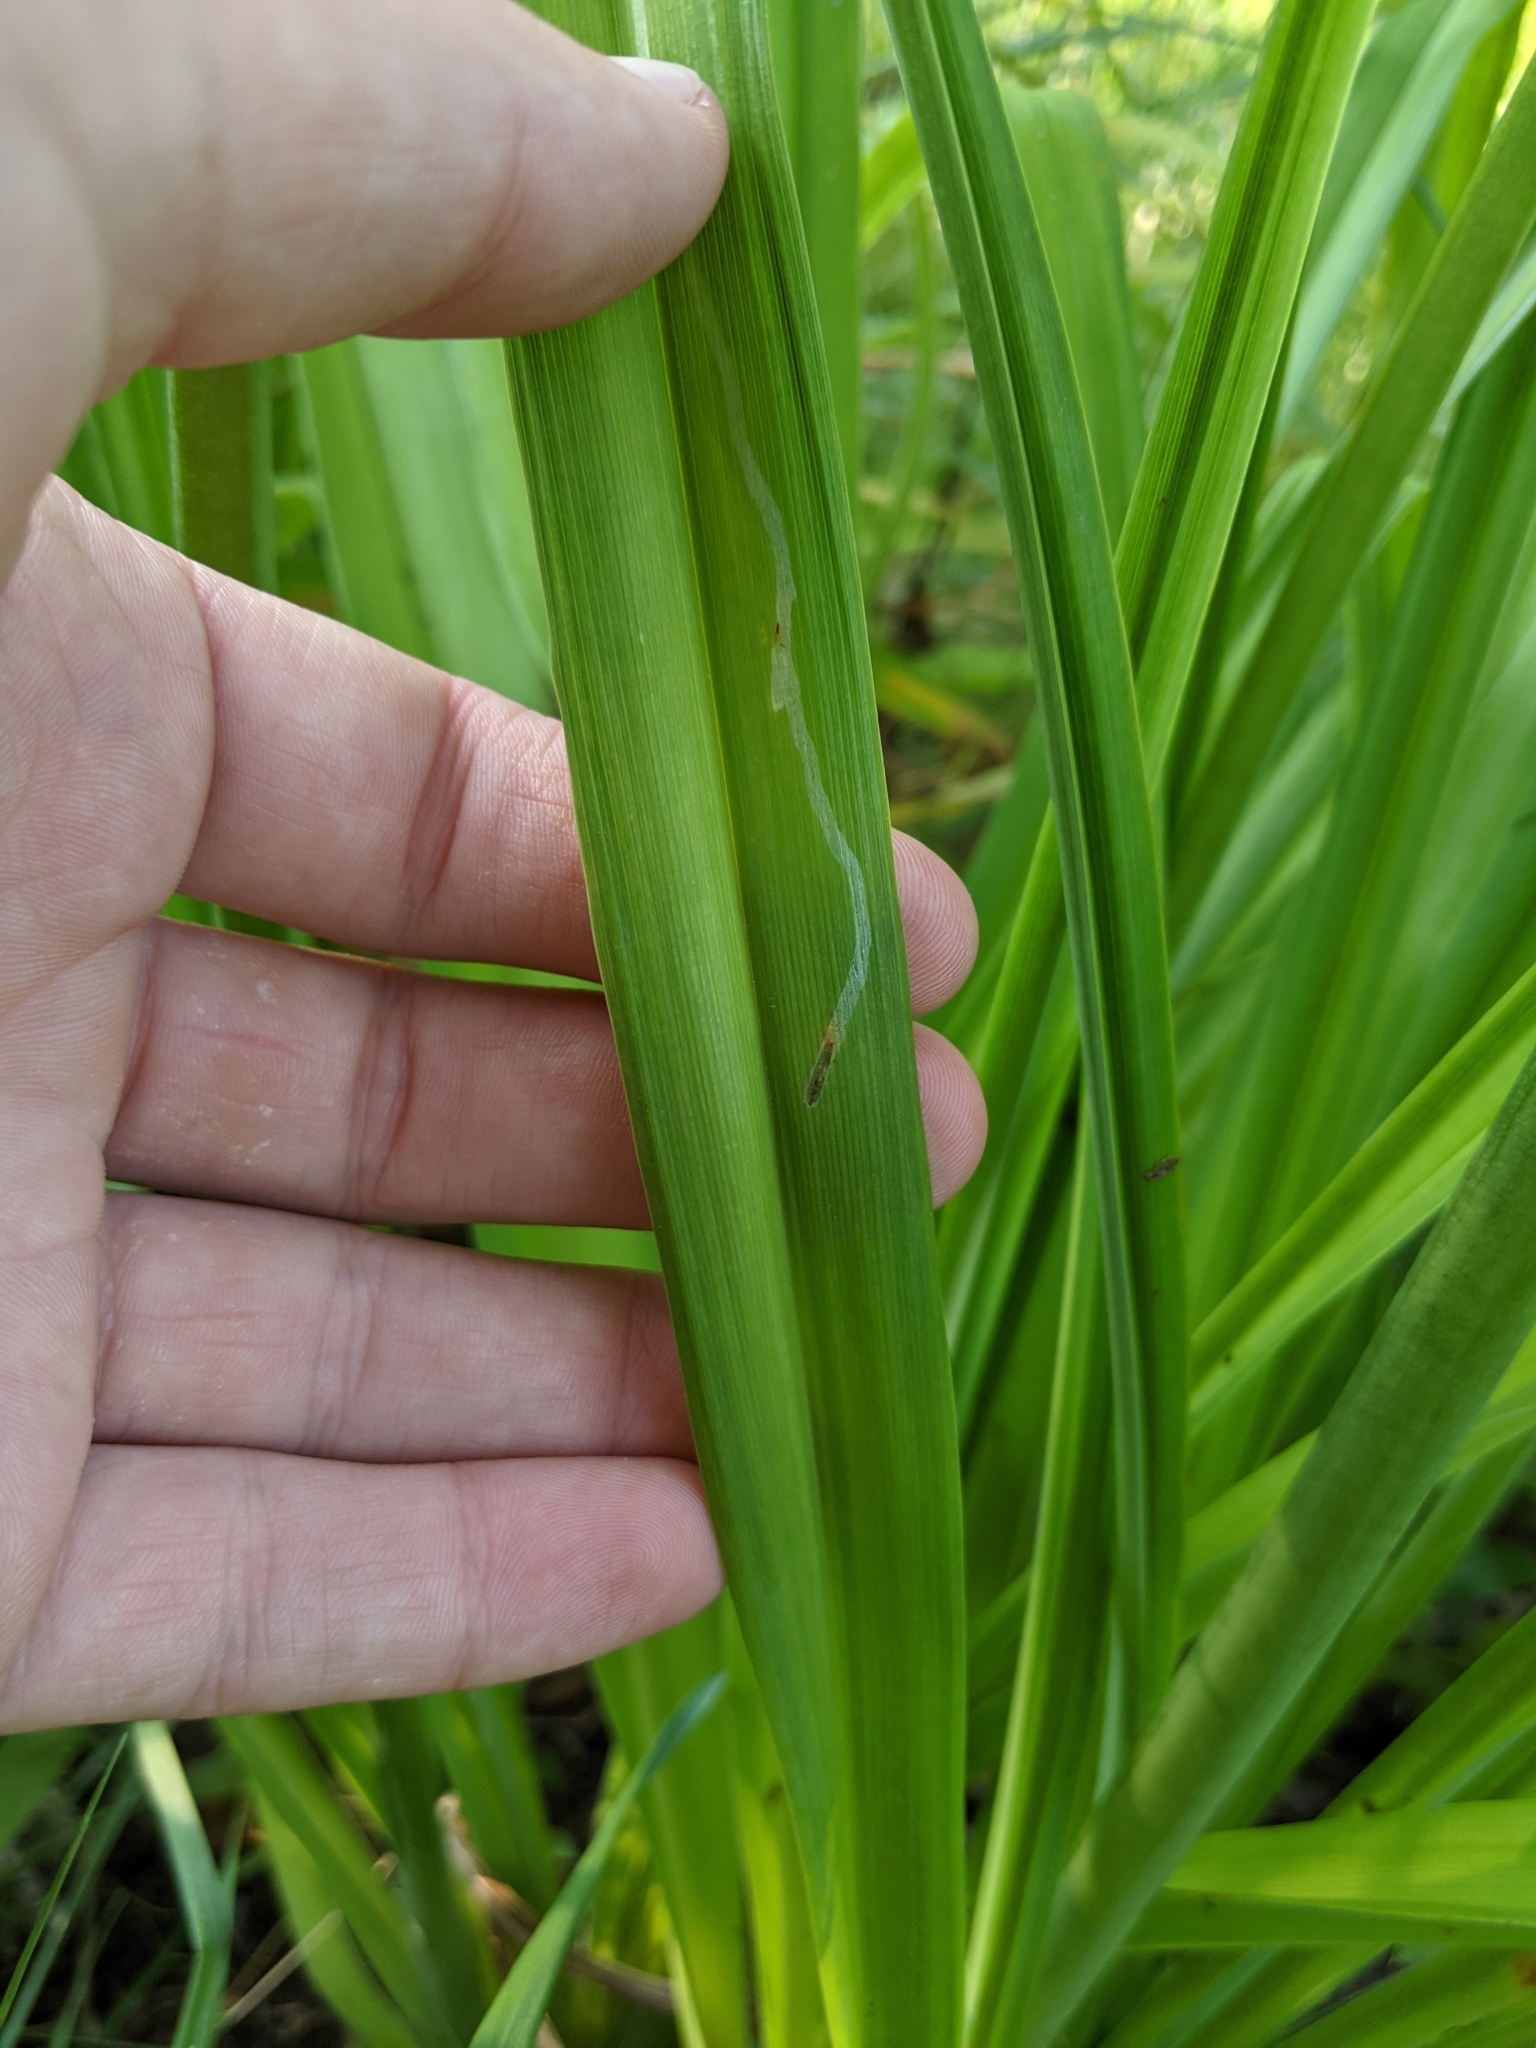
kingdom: Animalia
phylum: Arthropoda
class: Insecta
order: Diptera
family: Agromyzidae
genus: Ophiomyia
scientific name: Ophiomyia kwansonis
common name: Daylily leafminer
